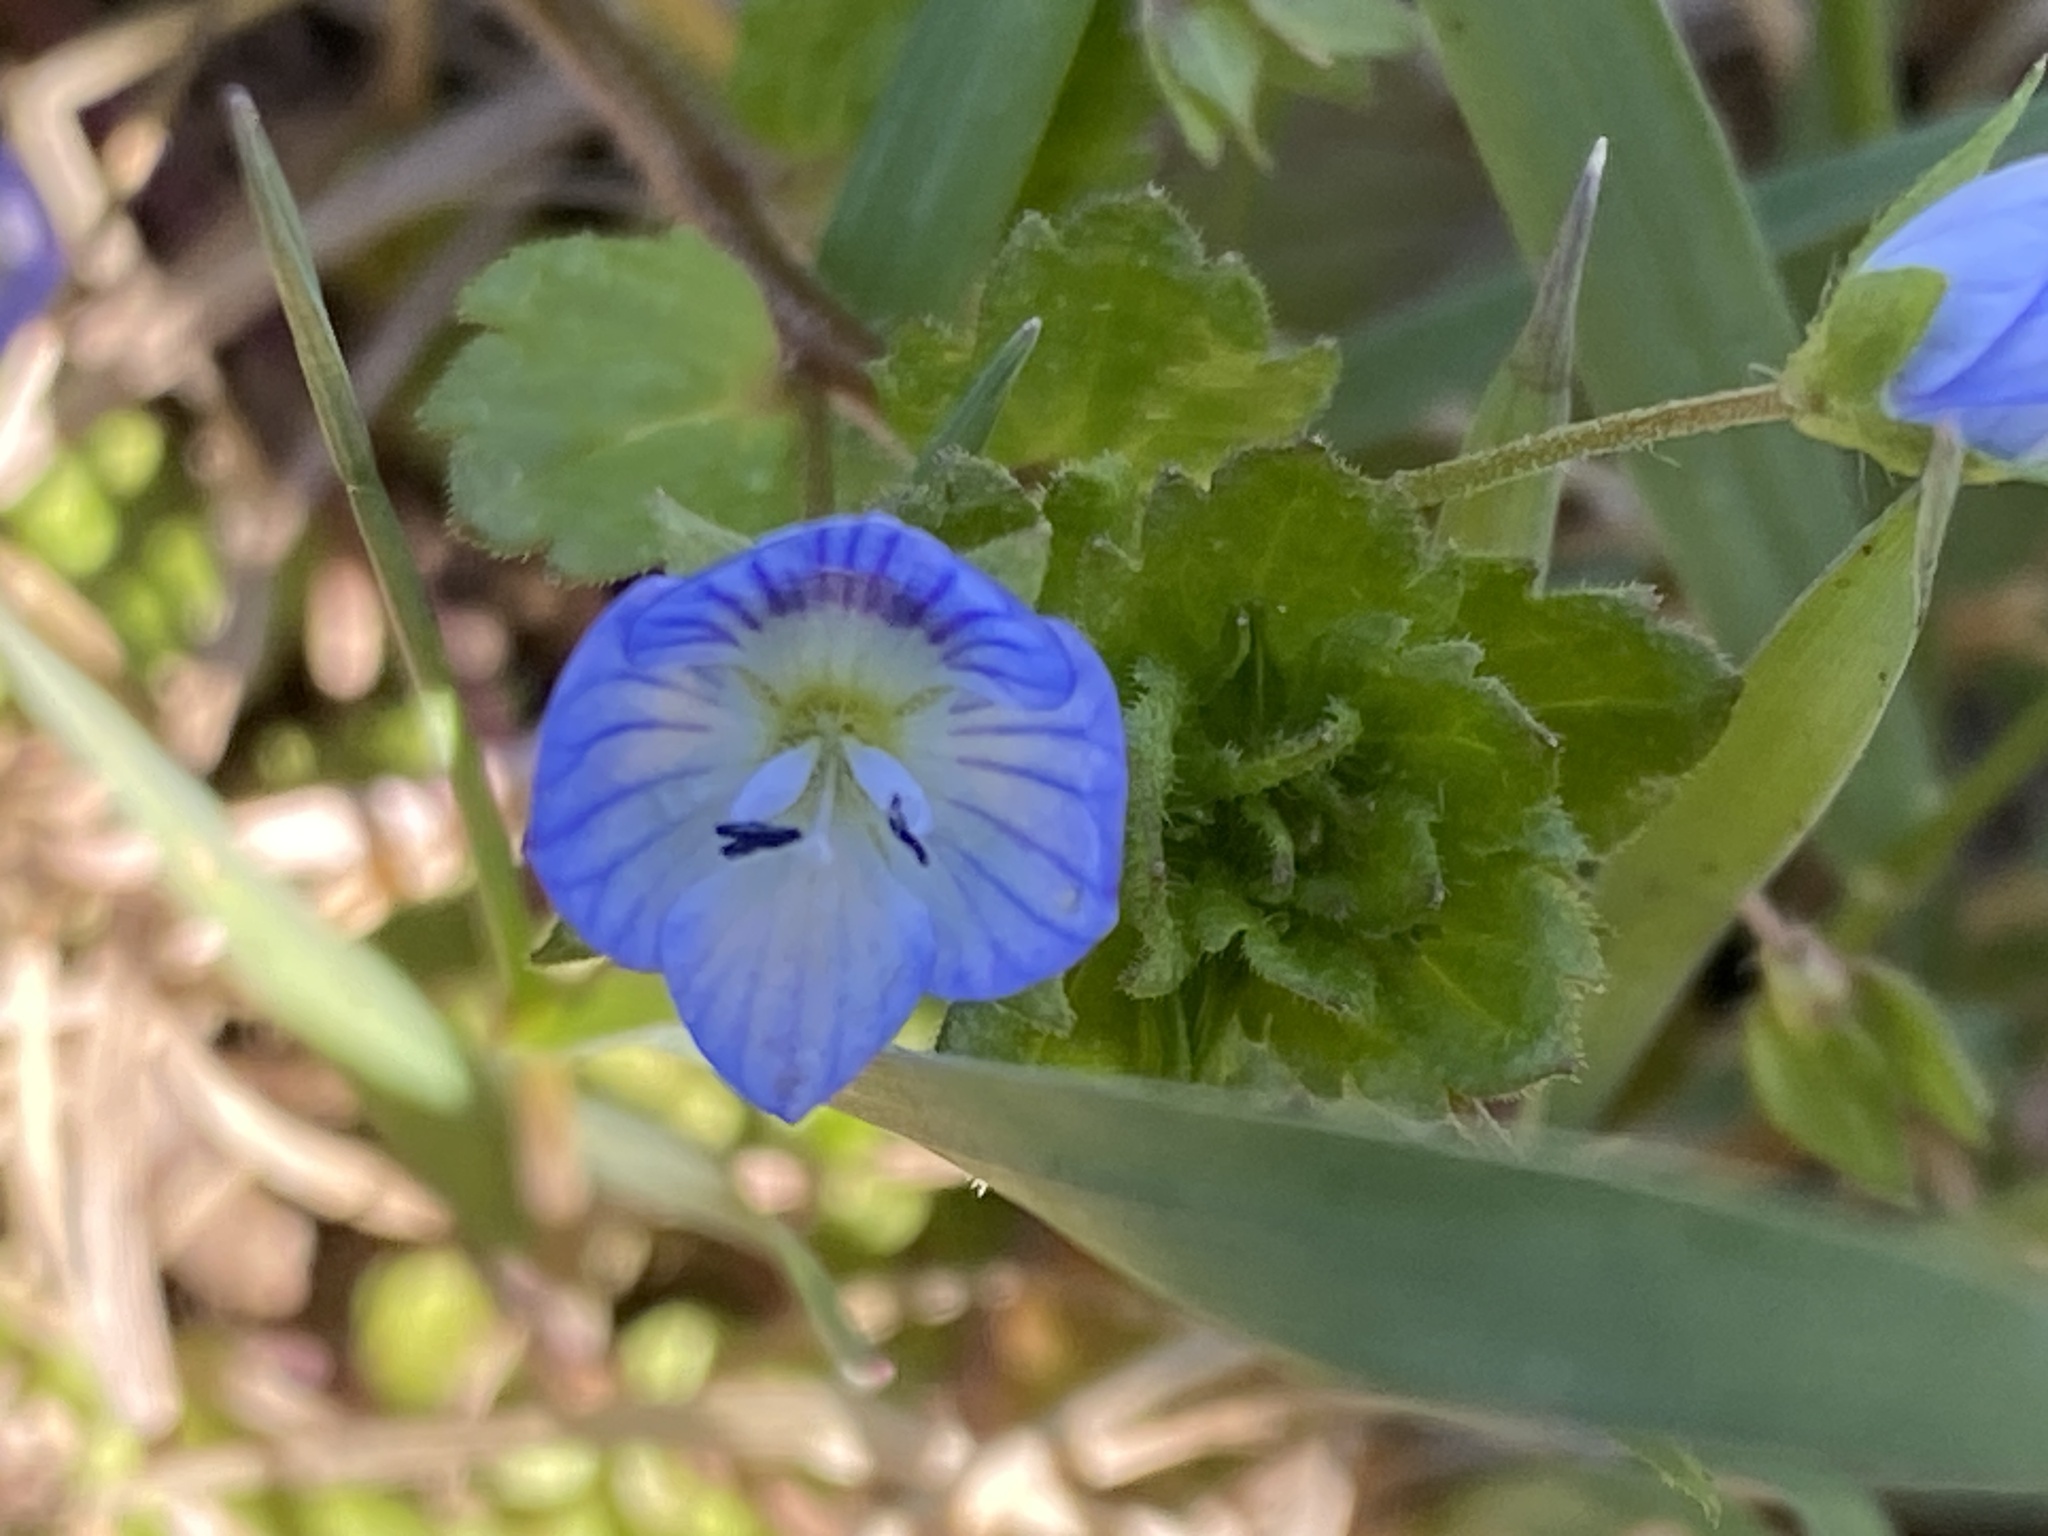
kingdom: Plantae
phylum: Tracheophyta
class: Magnoliopsida
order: Lamiales
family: Plantaginaceae
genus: Veronica
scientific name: Veronica persica
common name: Common field-speedwell
